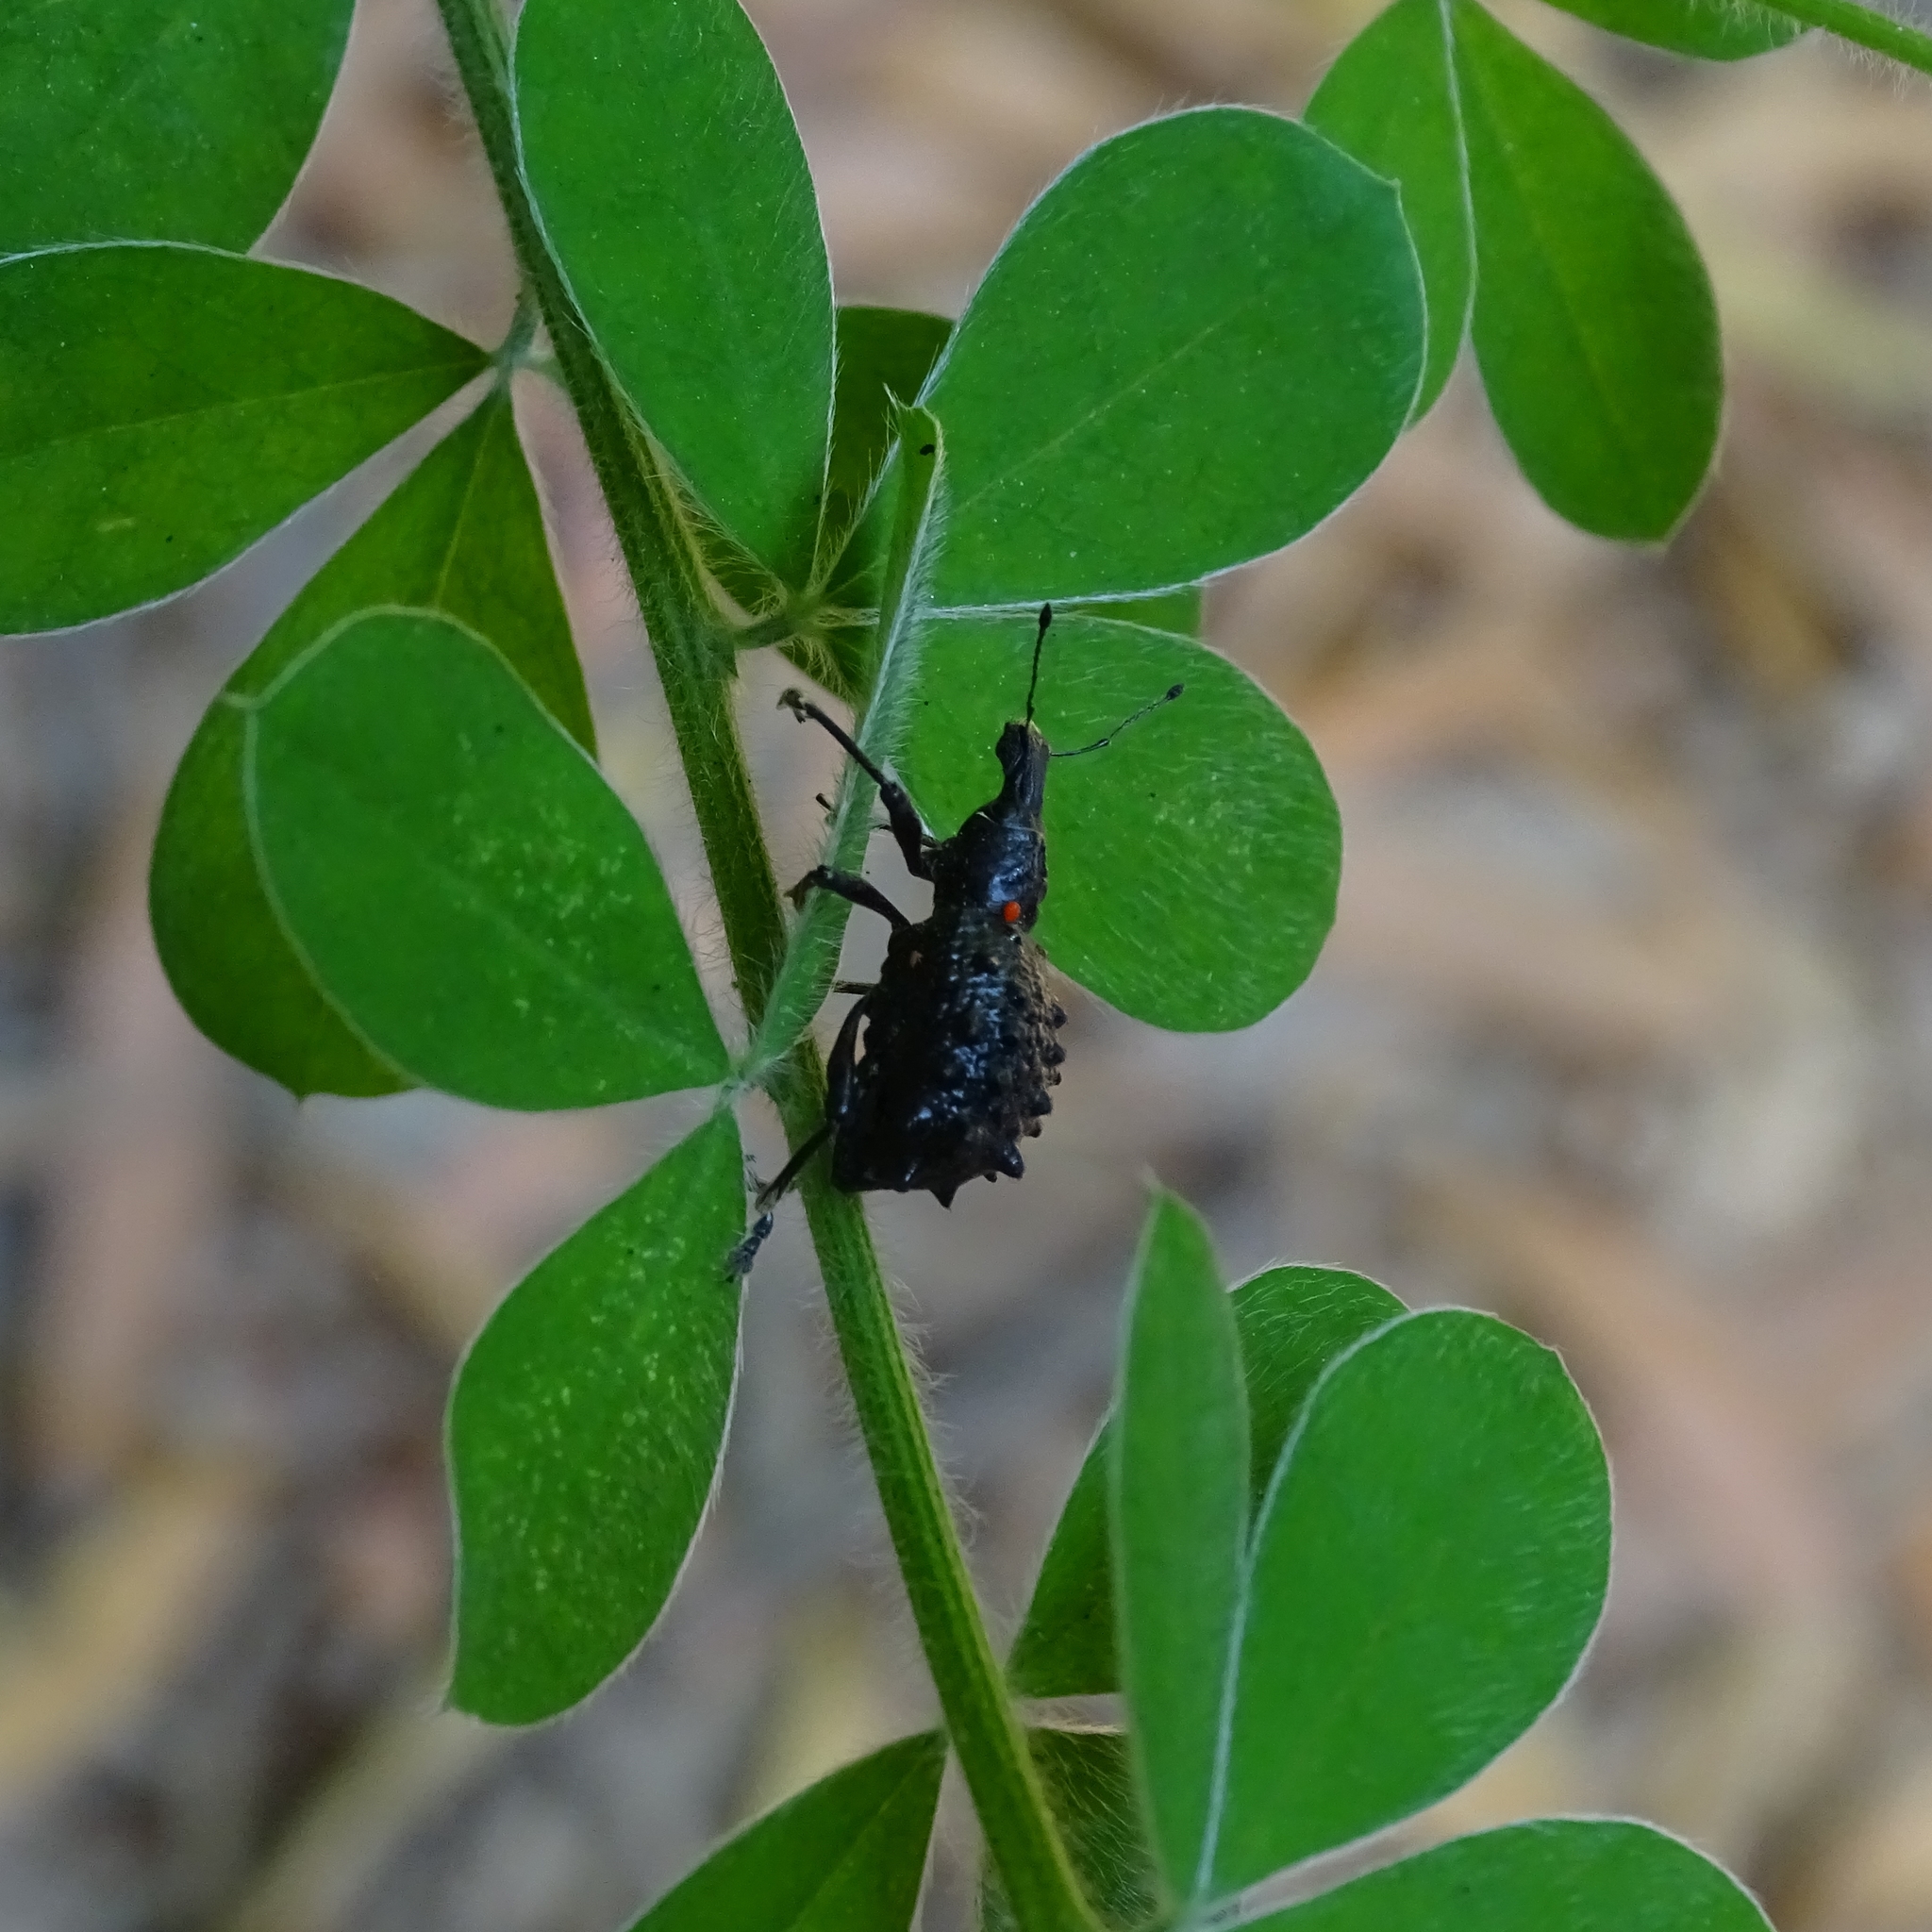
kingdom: Animalia
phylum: Arthropoda
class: Insecta
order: Coleoptera
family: Curculionidae
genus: Megalometis
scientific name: Megalometis spiniferus
